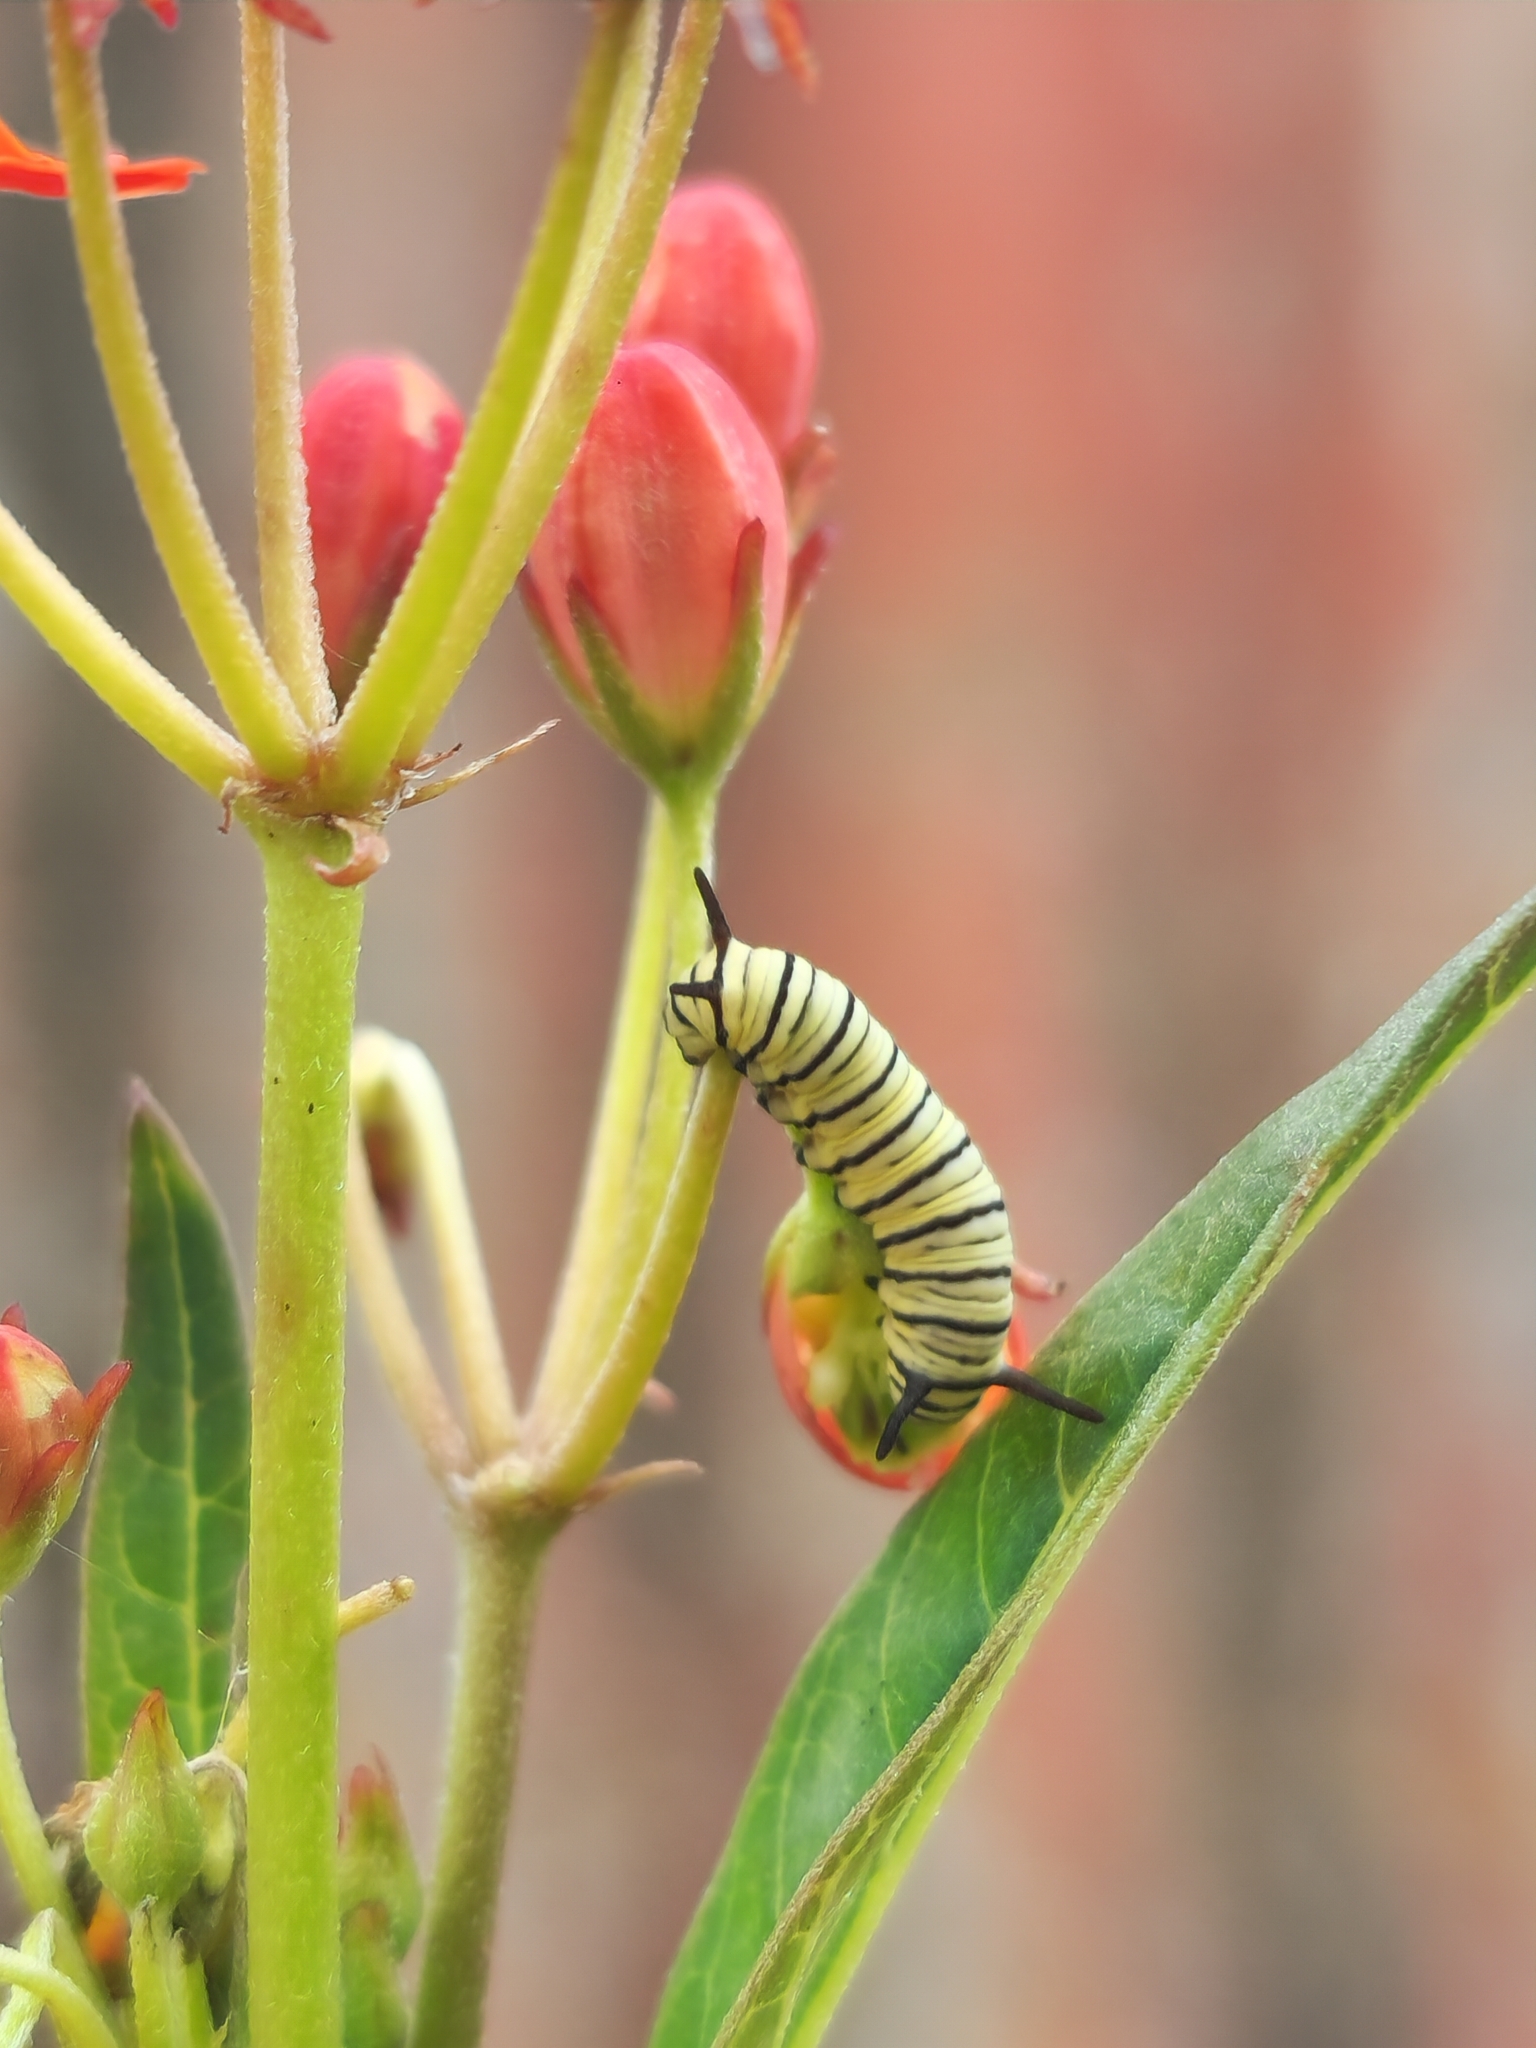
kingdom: Animalia
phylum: Arthropoda
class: Insecta
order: Lepidoptera
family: Nymphalidae
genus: Danaus
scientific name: Danaus erippus
